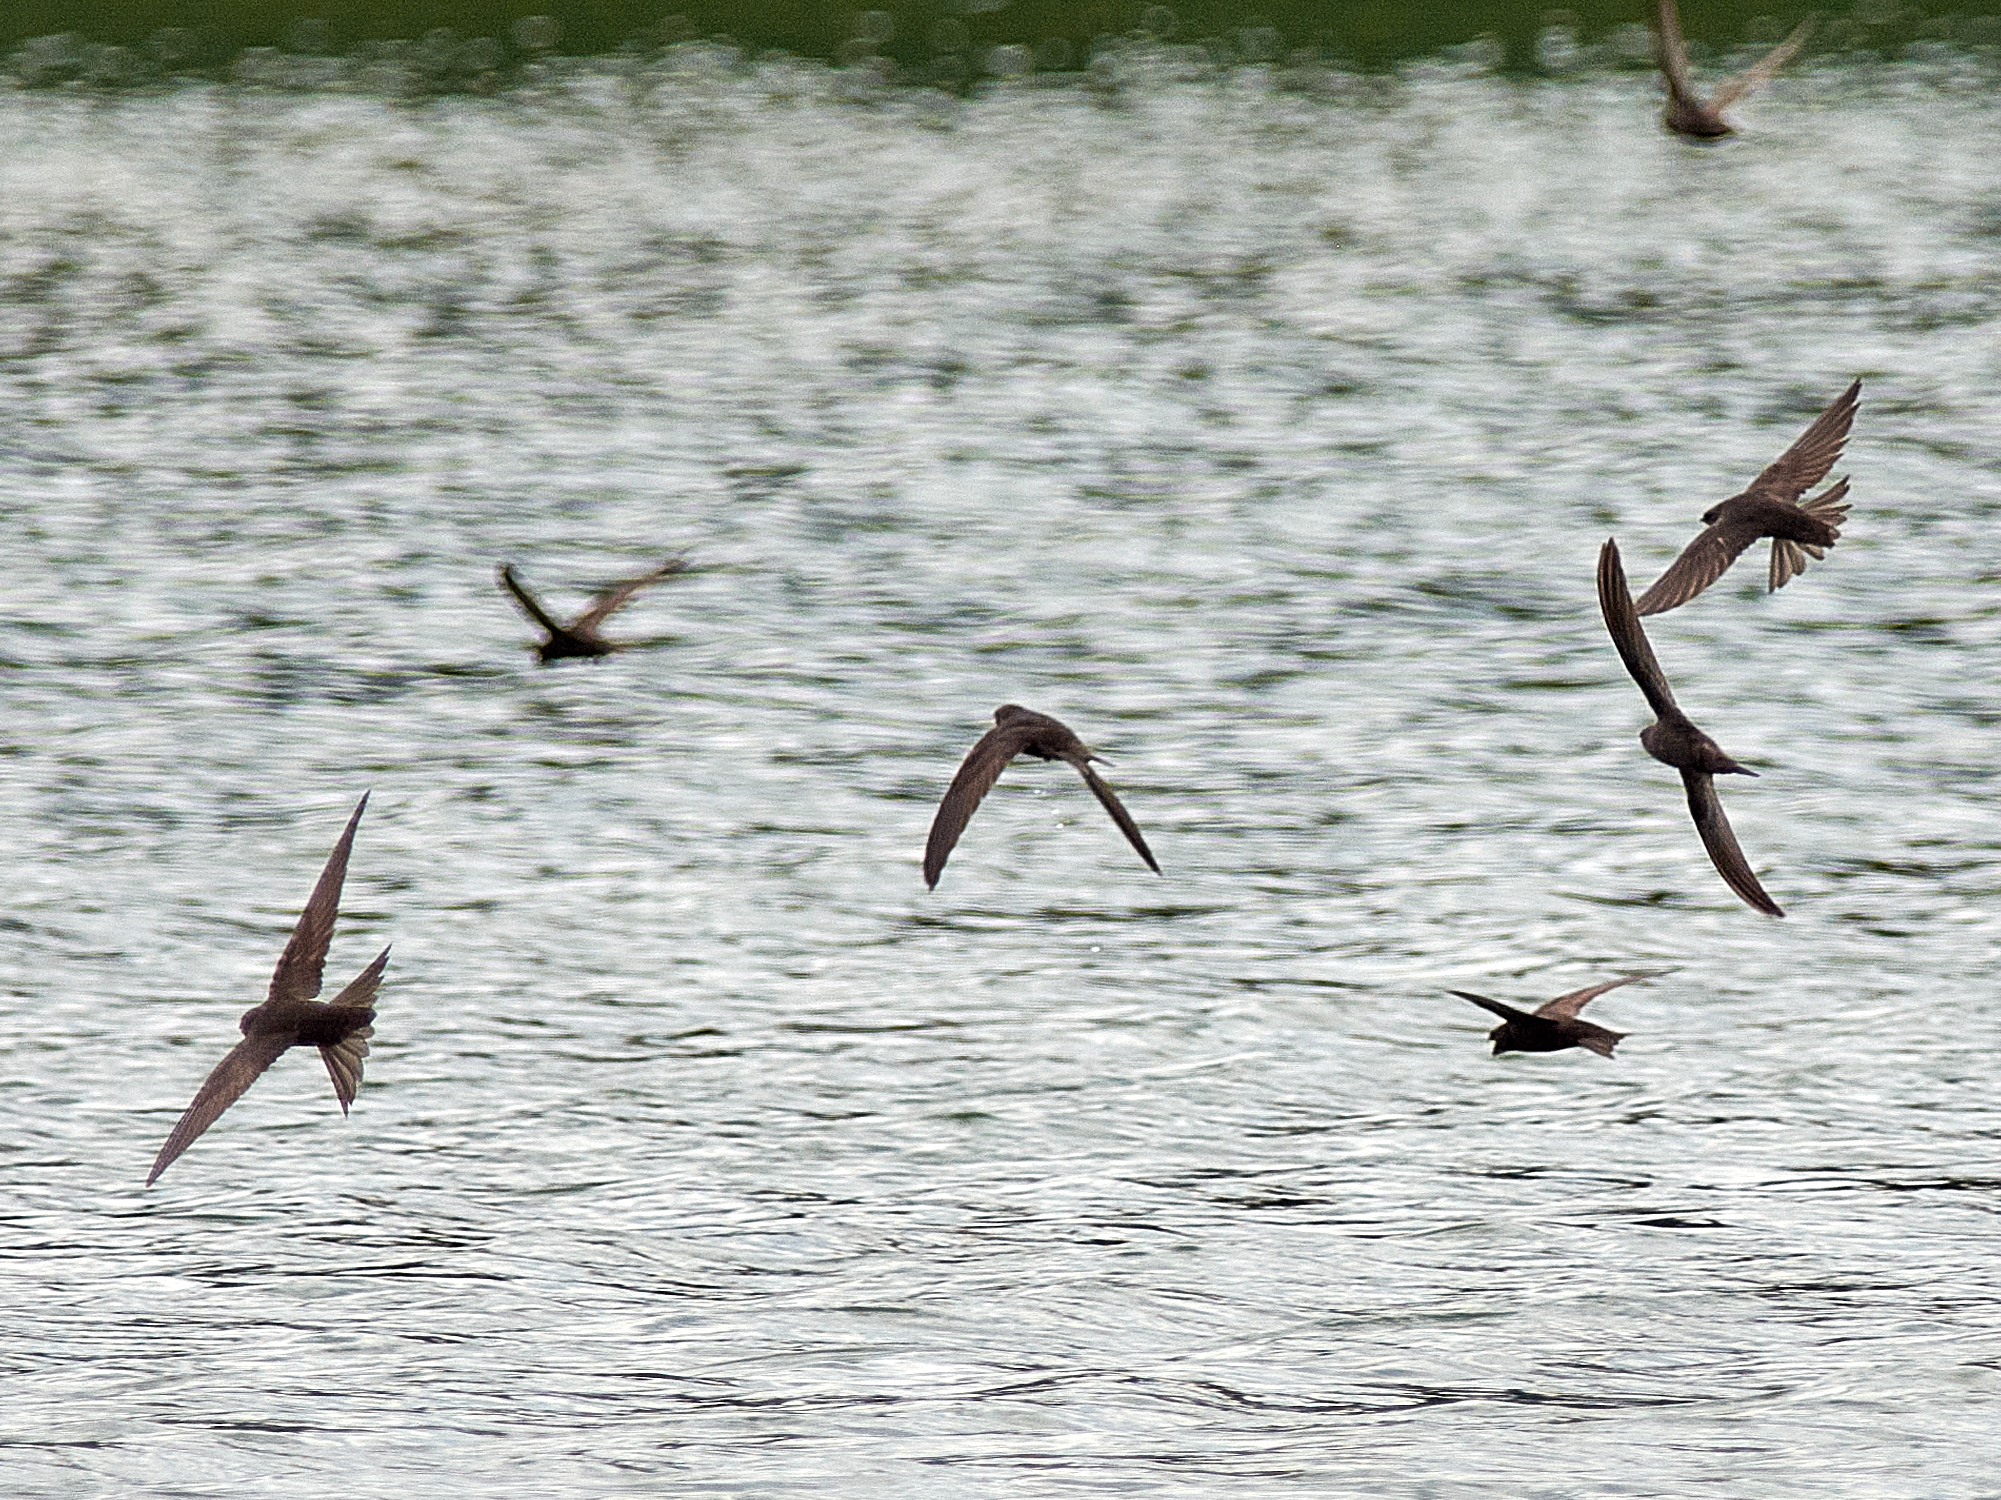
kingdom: Animalia
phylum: Chordata
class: Aves
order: Apodiformes
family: Apodidae
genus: Apus
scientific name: Apus apus
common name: Common swift
